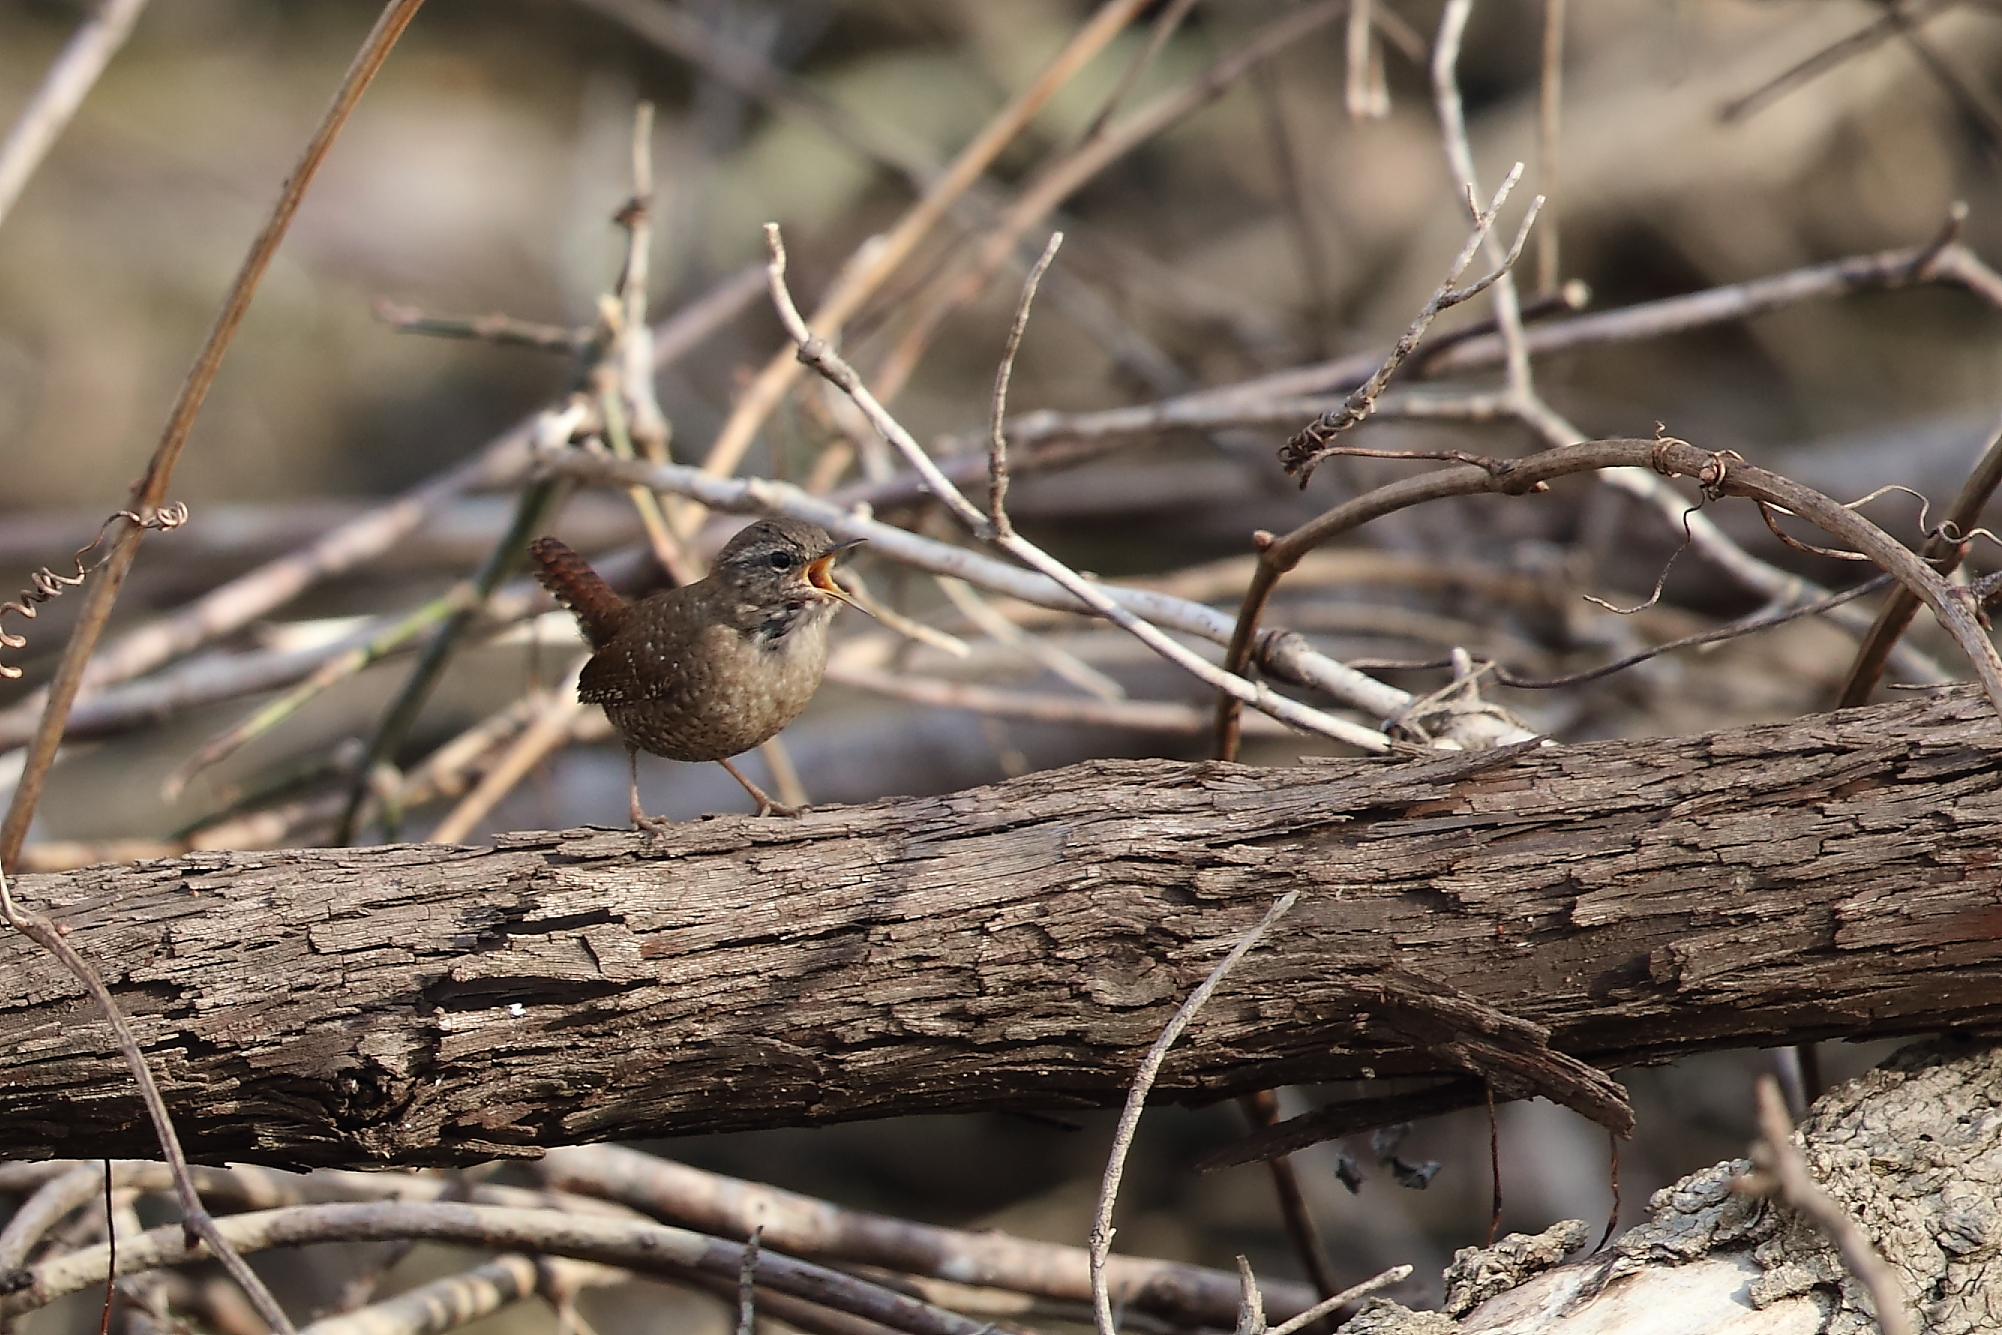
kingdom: Animalia
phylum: Chordata
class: Aves
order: Passeriformes
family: Troglodytidae
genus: Troglodytes
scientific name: Troglodytes hiemalis
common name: Winter wren
